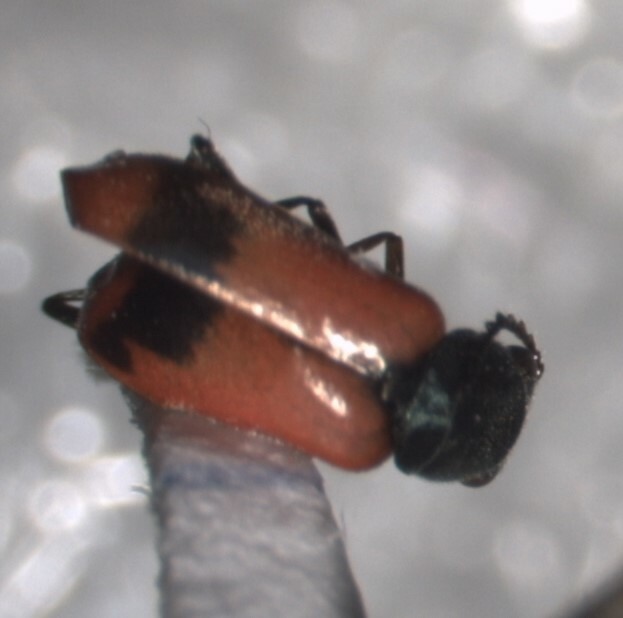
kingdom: Animalia
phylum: Arthropoda
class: Insecta
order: Coleoptera
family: Melyridae
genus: Anthocomus
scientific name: Anthocomus equestris
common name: Black-banded soft-winged flower beetle
